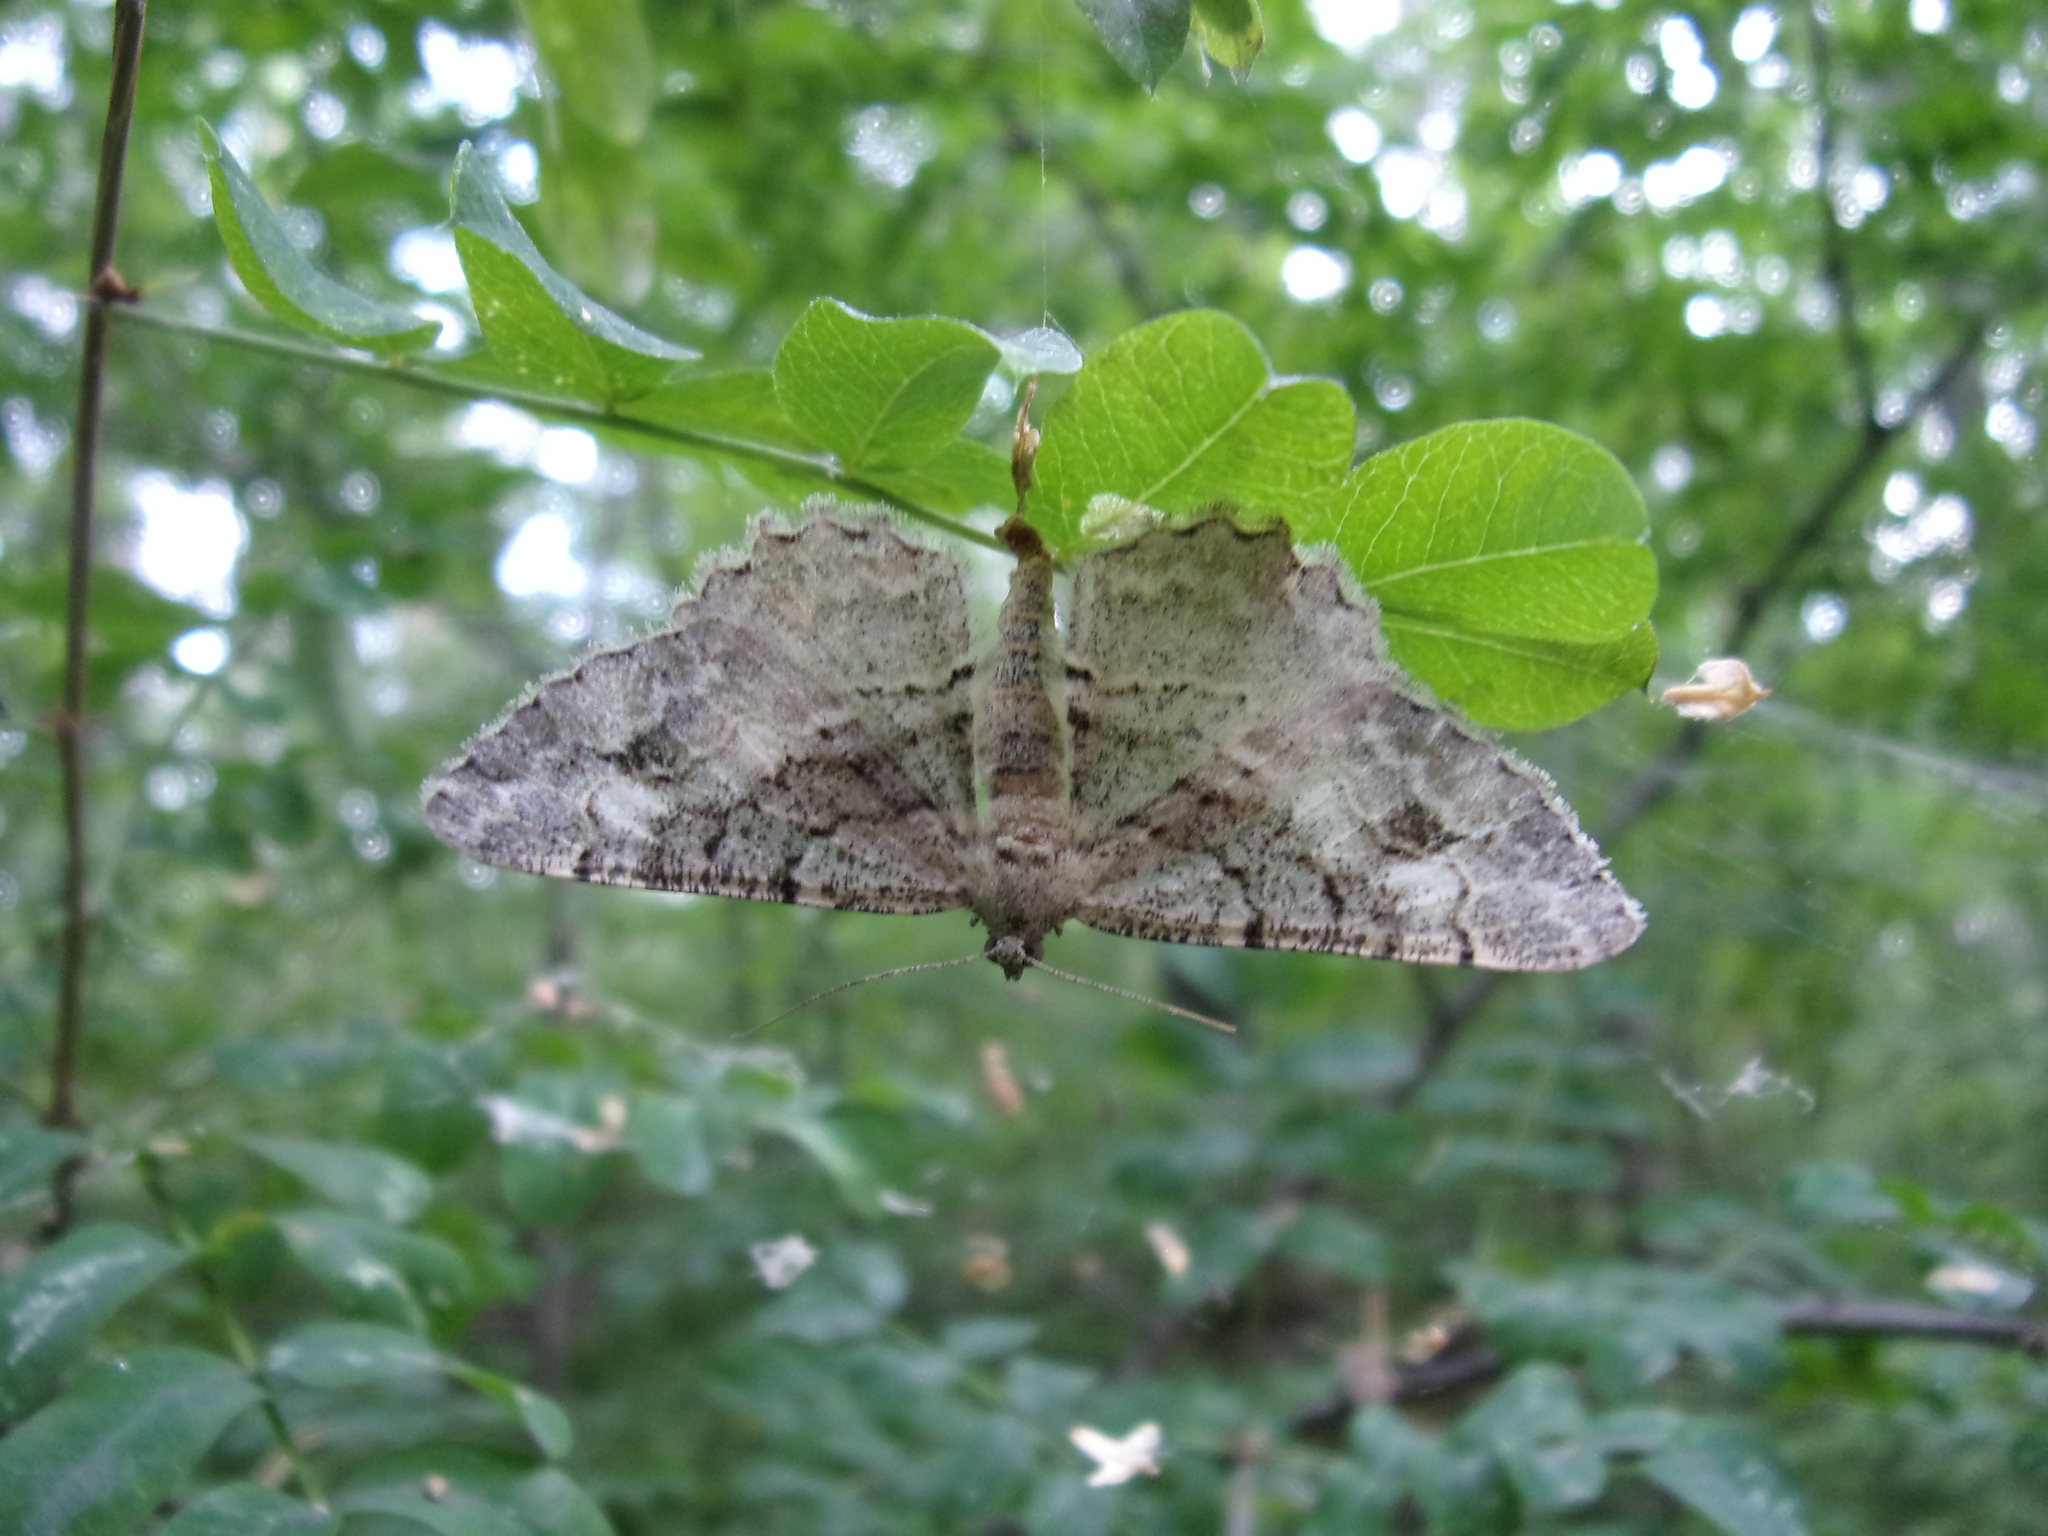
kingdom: Animalia
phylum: Arthropoda
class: Insecta
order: Lepidoptera
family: Geometridae
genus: Alcis
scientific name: Alcis deversata
